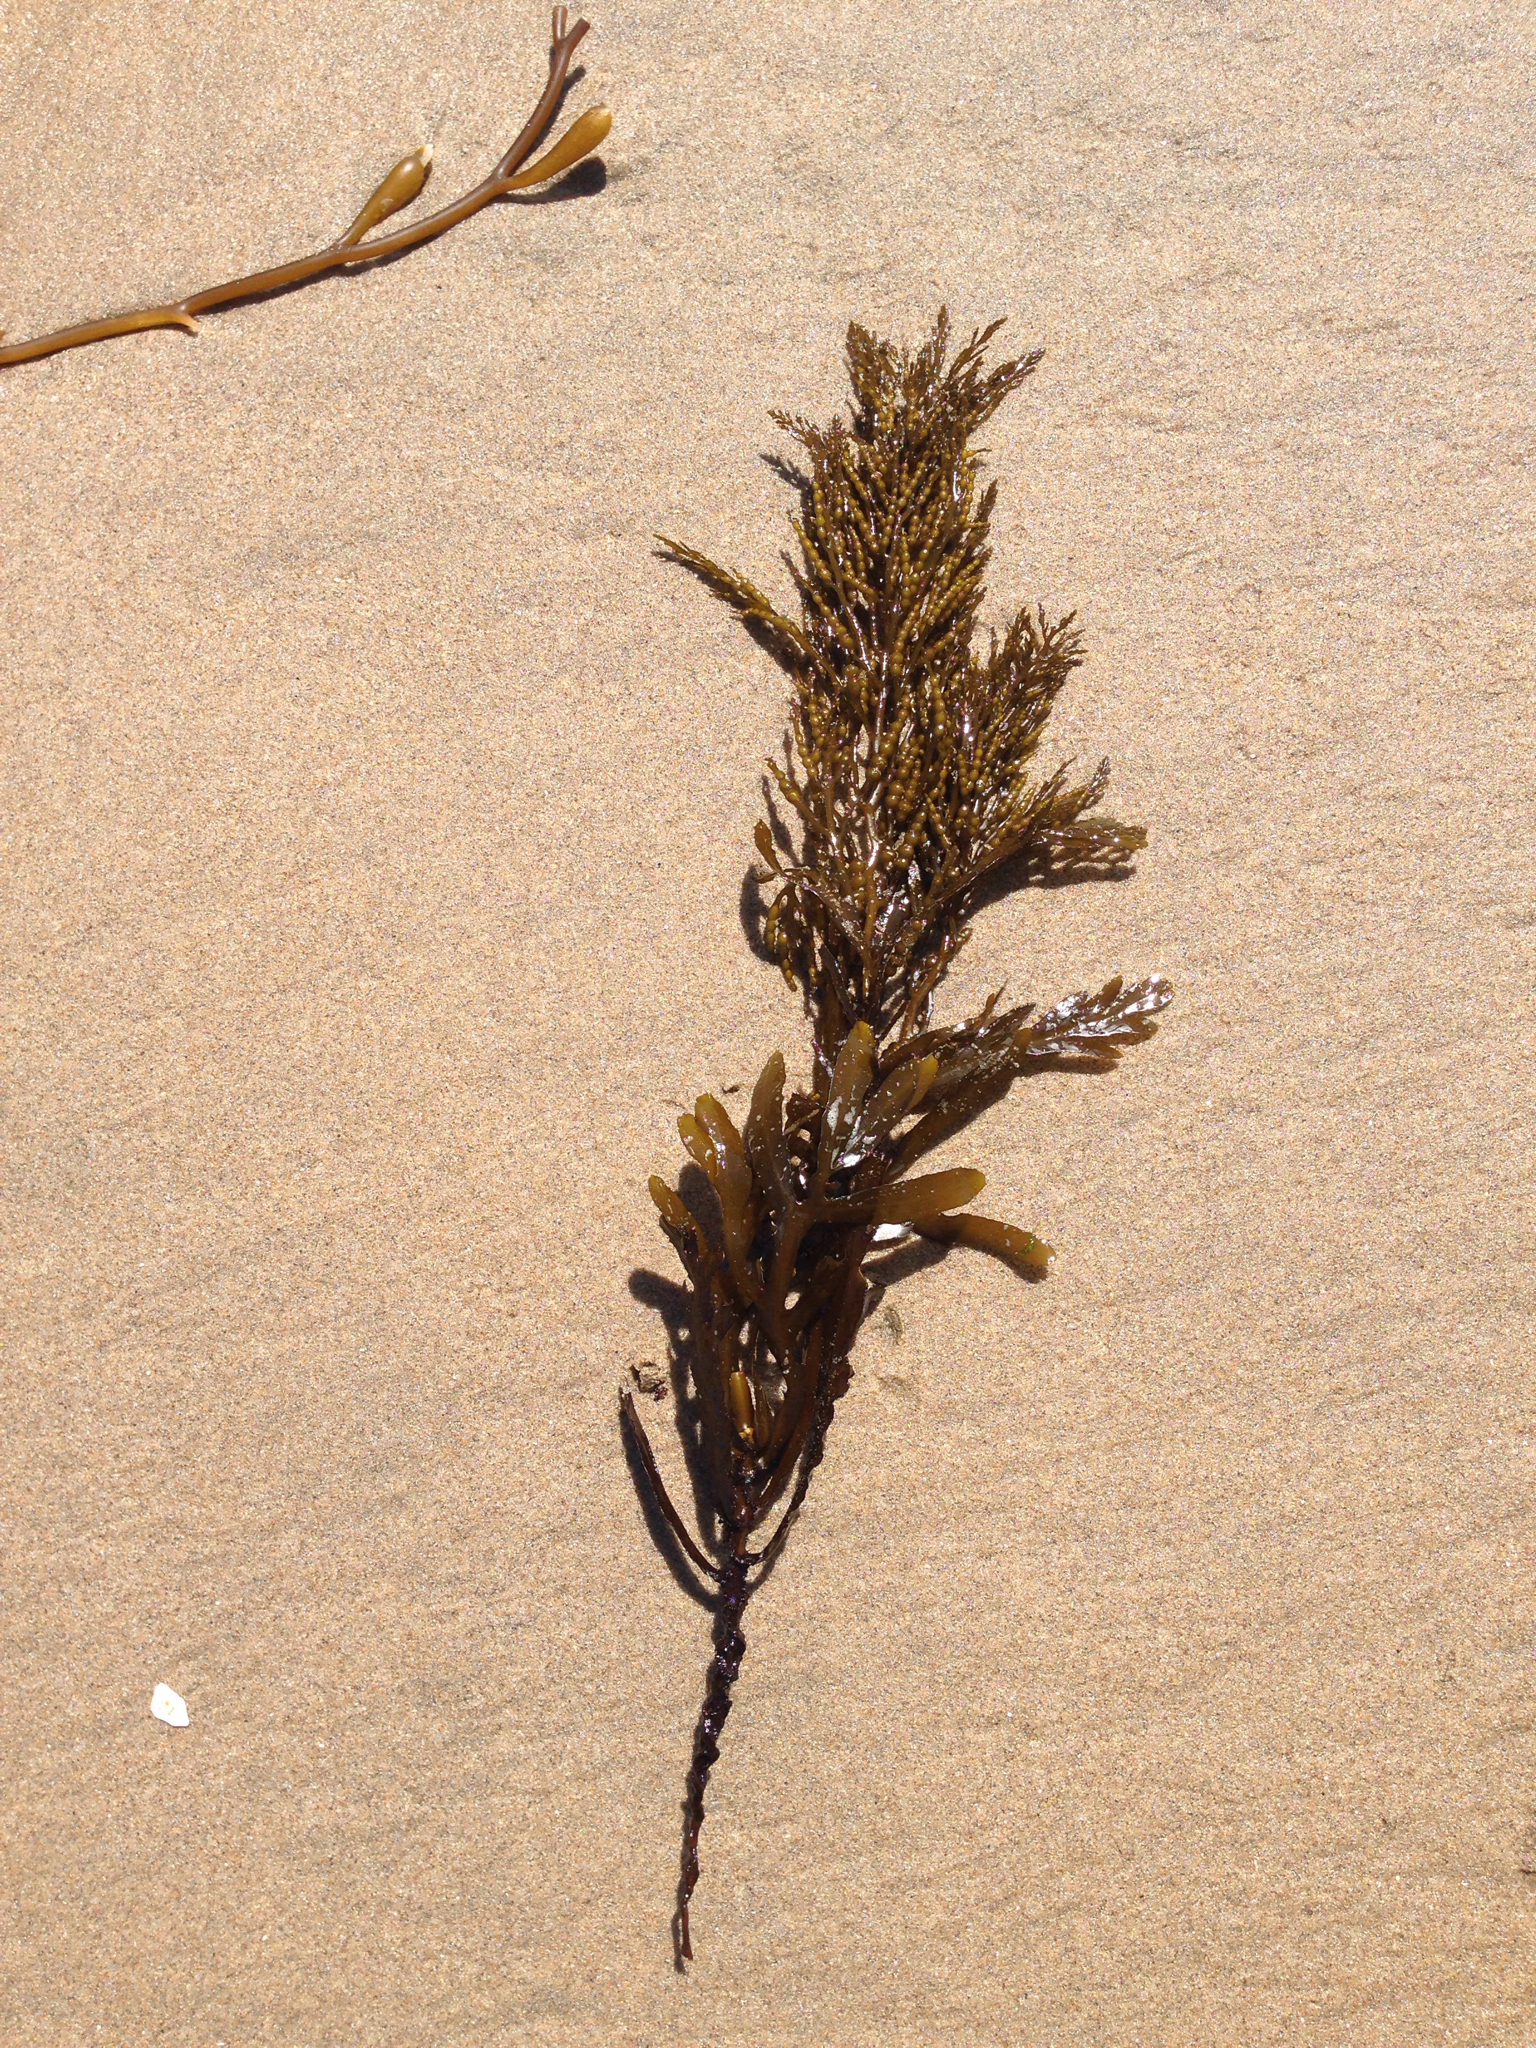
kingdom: Chromista
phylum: Ochrophyta
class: Phaeophyceae
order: Fucales
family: Sargassaceae
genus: Stephanocystis
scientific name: Stephanocystis
